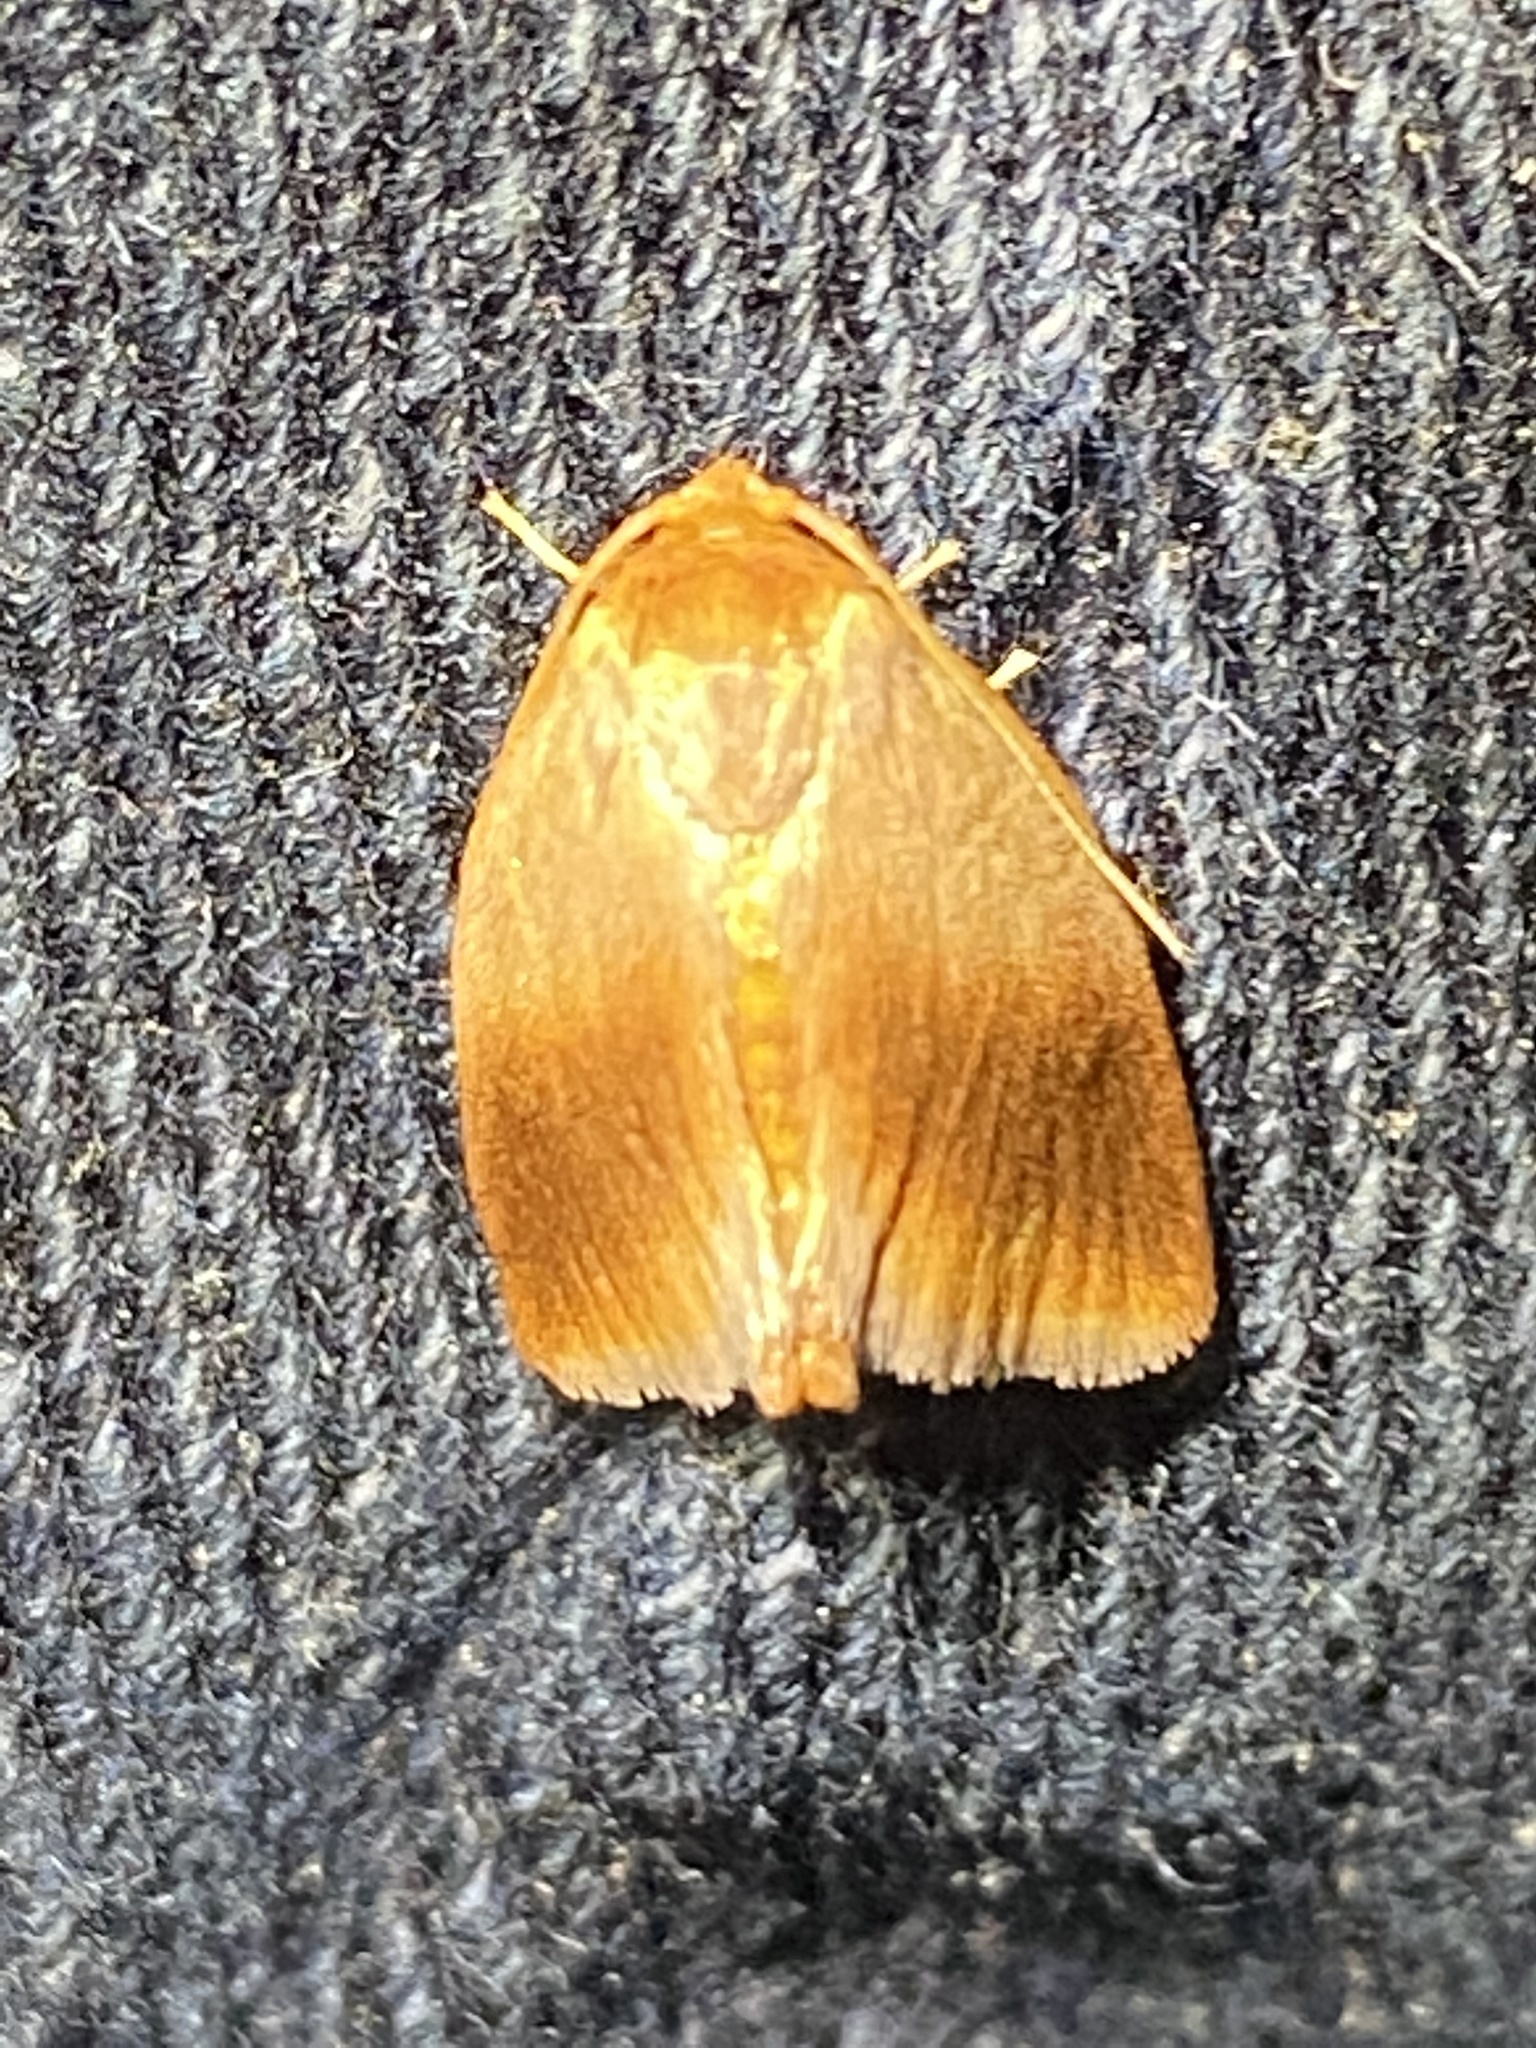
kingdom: Animalia
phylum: Arthropoda
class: Insecta
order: Lepidoptera
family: Limacodidae
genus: Tortricidia
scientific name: Tortricidia testacea
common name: Early button slug moth
